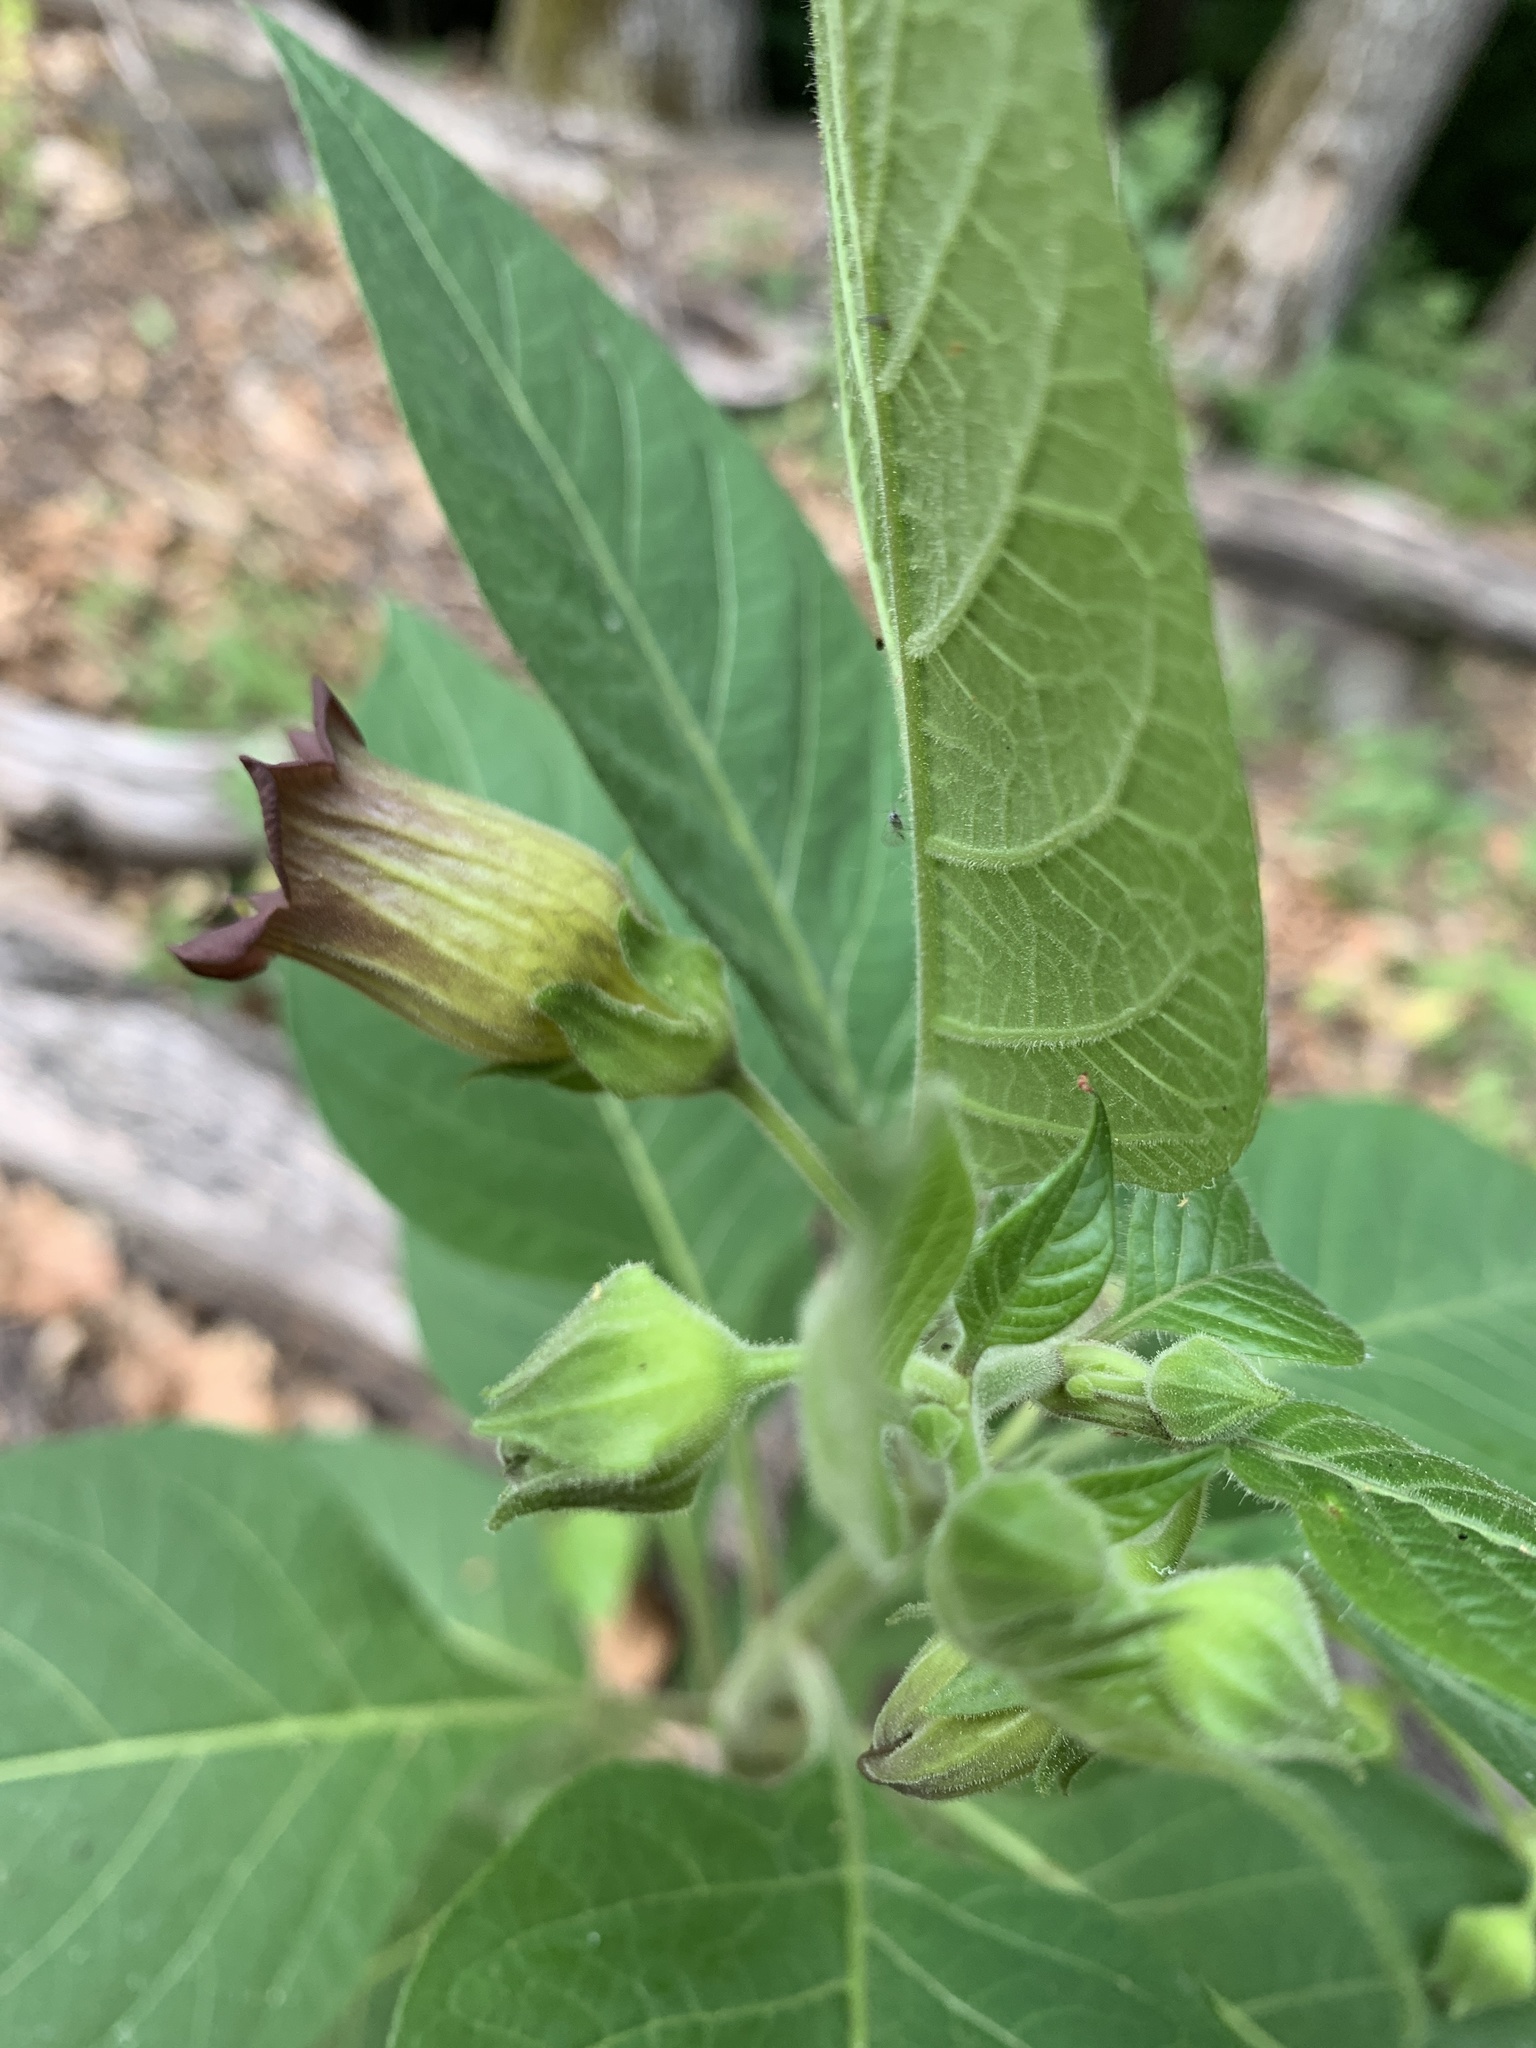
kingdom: Plantae
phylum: Tracheophyta
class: Magnoliopsida
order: Solanales
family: Solanaceae
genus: Atropa
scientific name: Atropa belladonna
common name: Deadly nightshade
